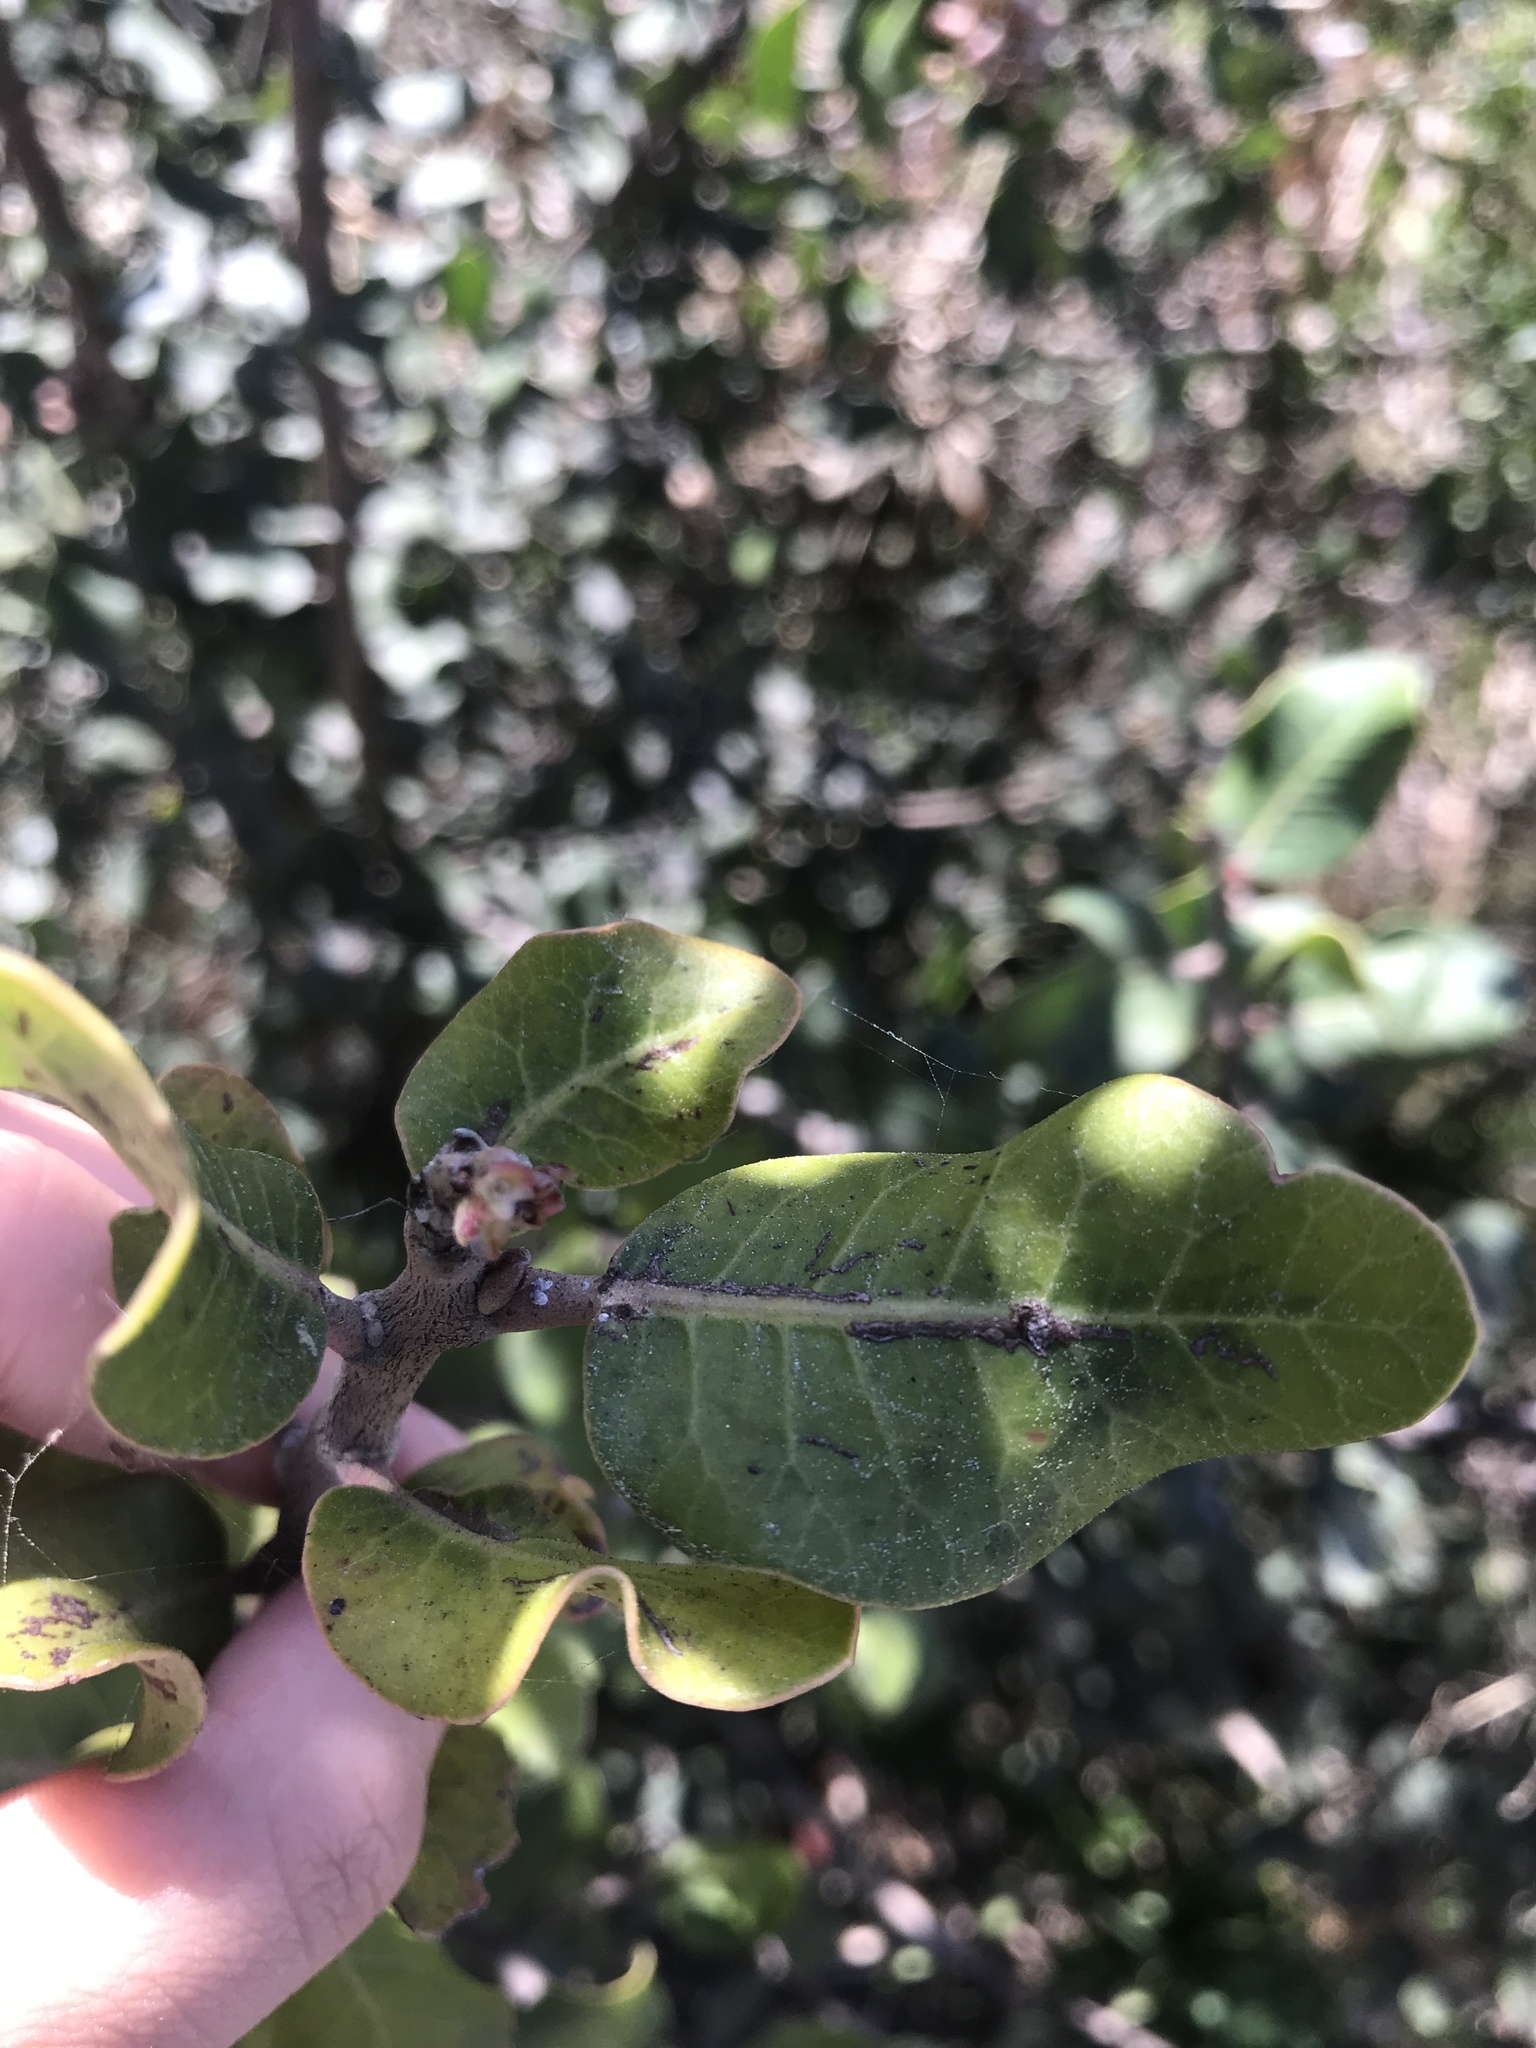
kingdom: Plantae
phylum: Tracheophyta
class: Magnoliopsida
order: Sapindales
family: Anacardiaceae
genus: Rhus
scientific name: Rhus integrifolia
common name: Lemonade sumac
